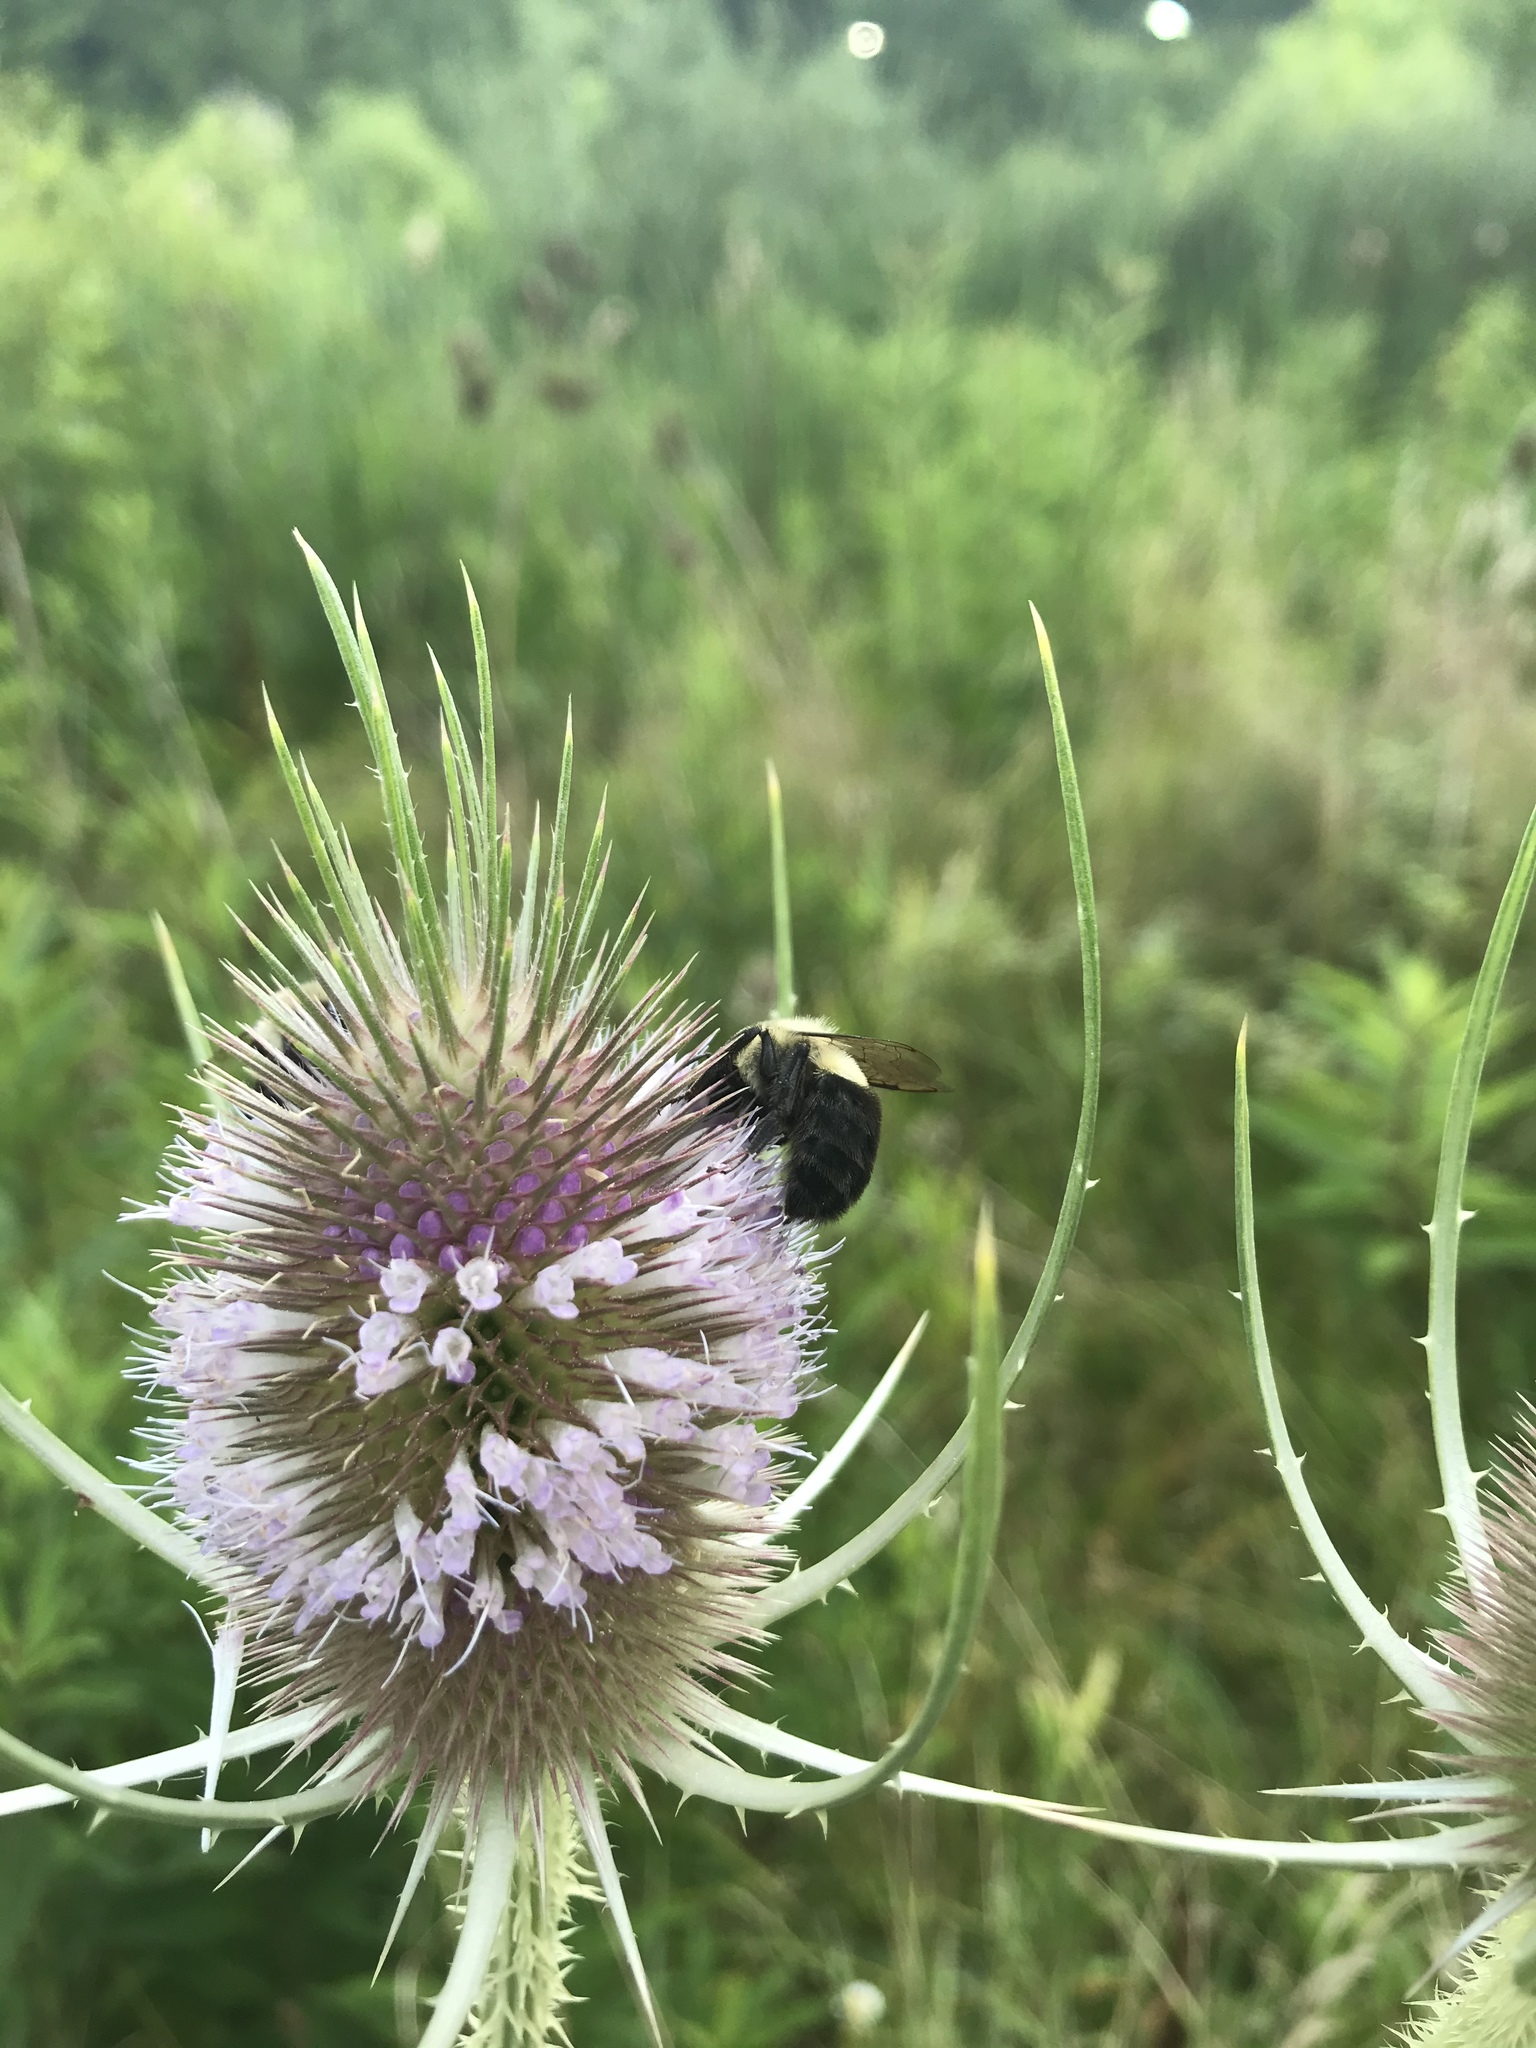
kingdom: Animalia
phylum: Arthropoda
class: Insecta
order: Hymenoptera
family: Apidae
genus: Bombus
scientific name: Bombus impatiens
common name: Common eastern bumble bee
